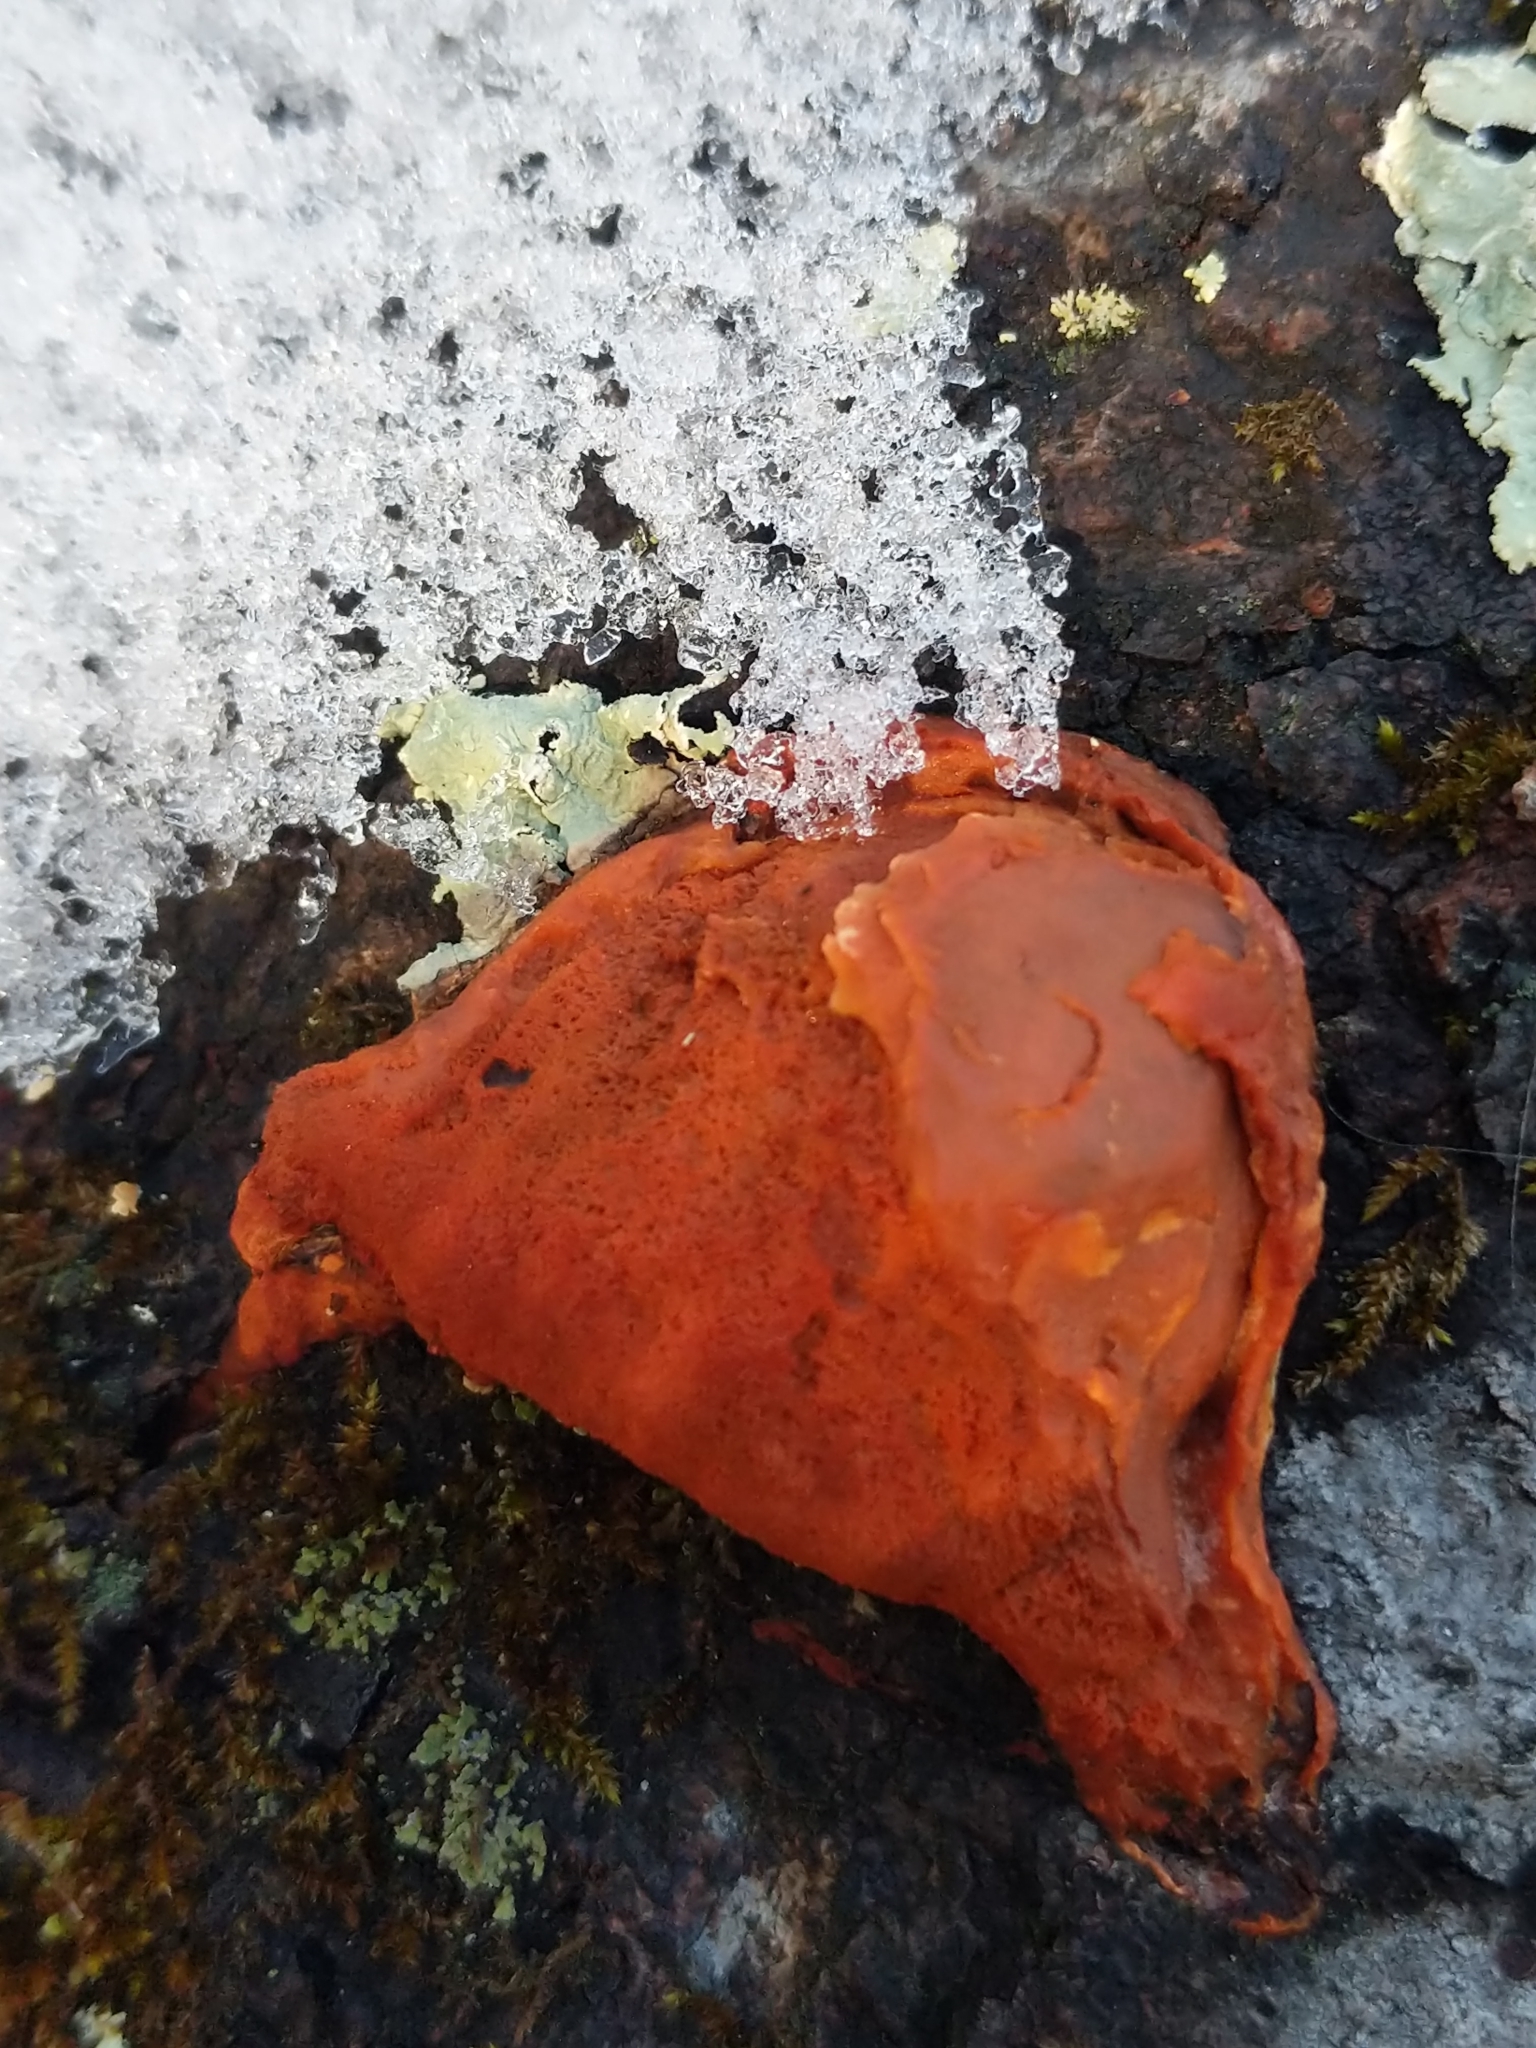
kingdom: Fungi
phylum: Basidiomycota
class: Agaricomycetes
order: Polyporales
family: Polyporaceae
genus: Trametes
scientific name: Trametes cinnabarina
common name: Northern cinnabar polypore
